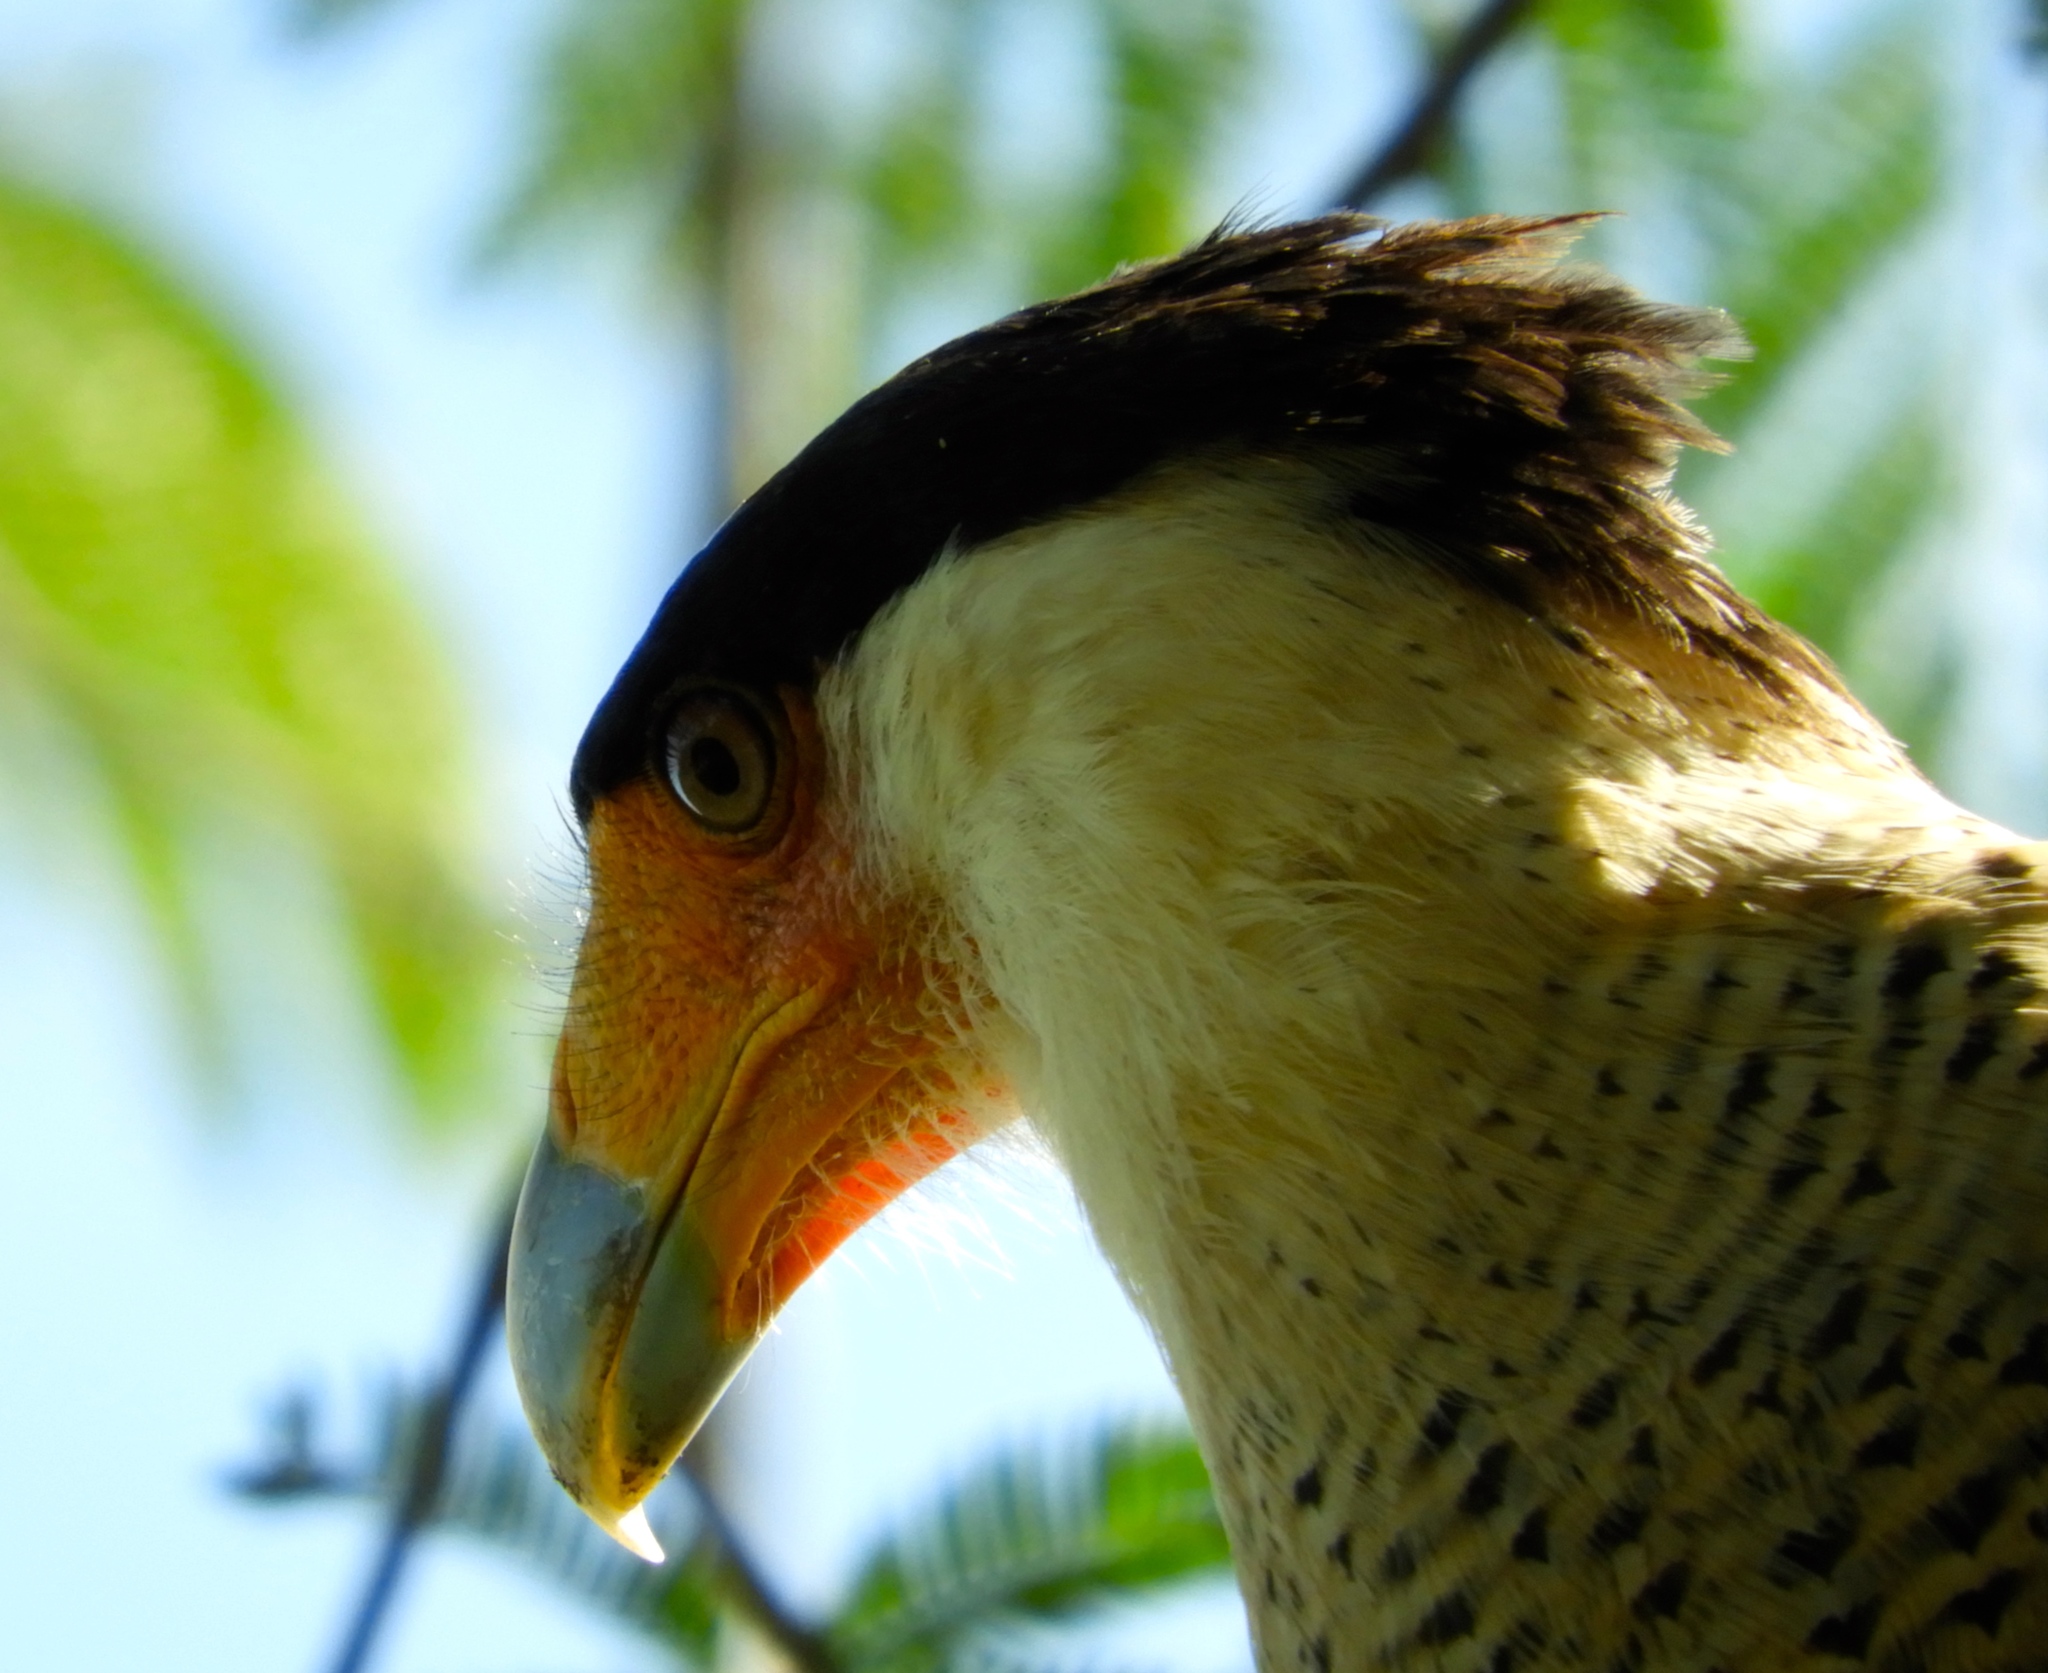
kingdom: Animalia
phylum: Chordata
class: Aves
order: Falconiformes
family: Falconidae
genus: Caracara
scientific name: Caracara plancus
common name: Southern caracara
